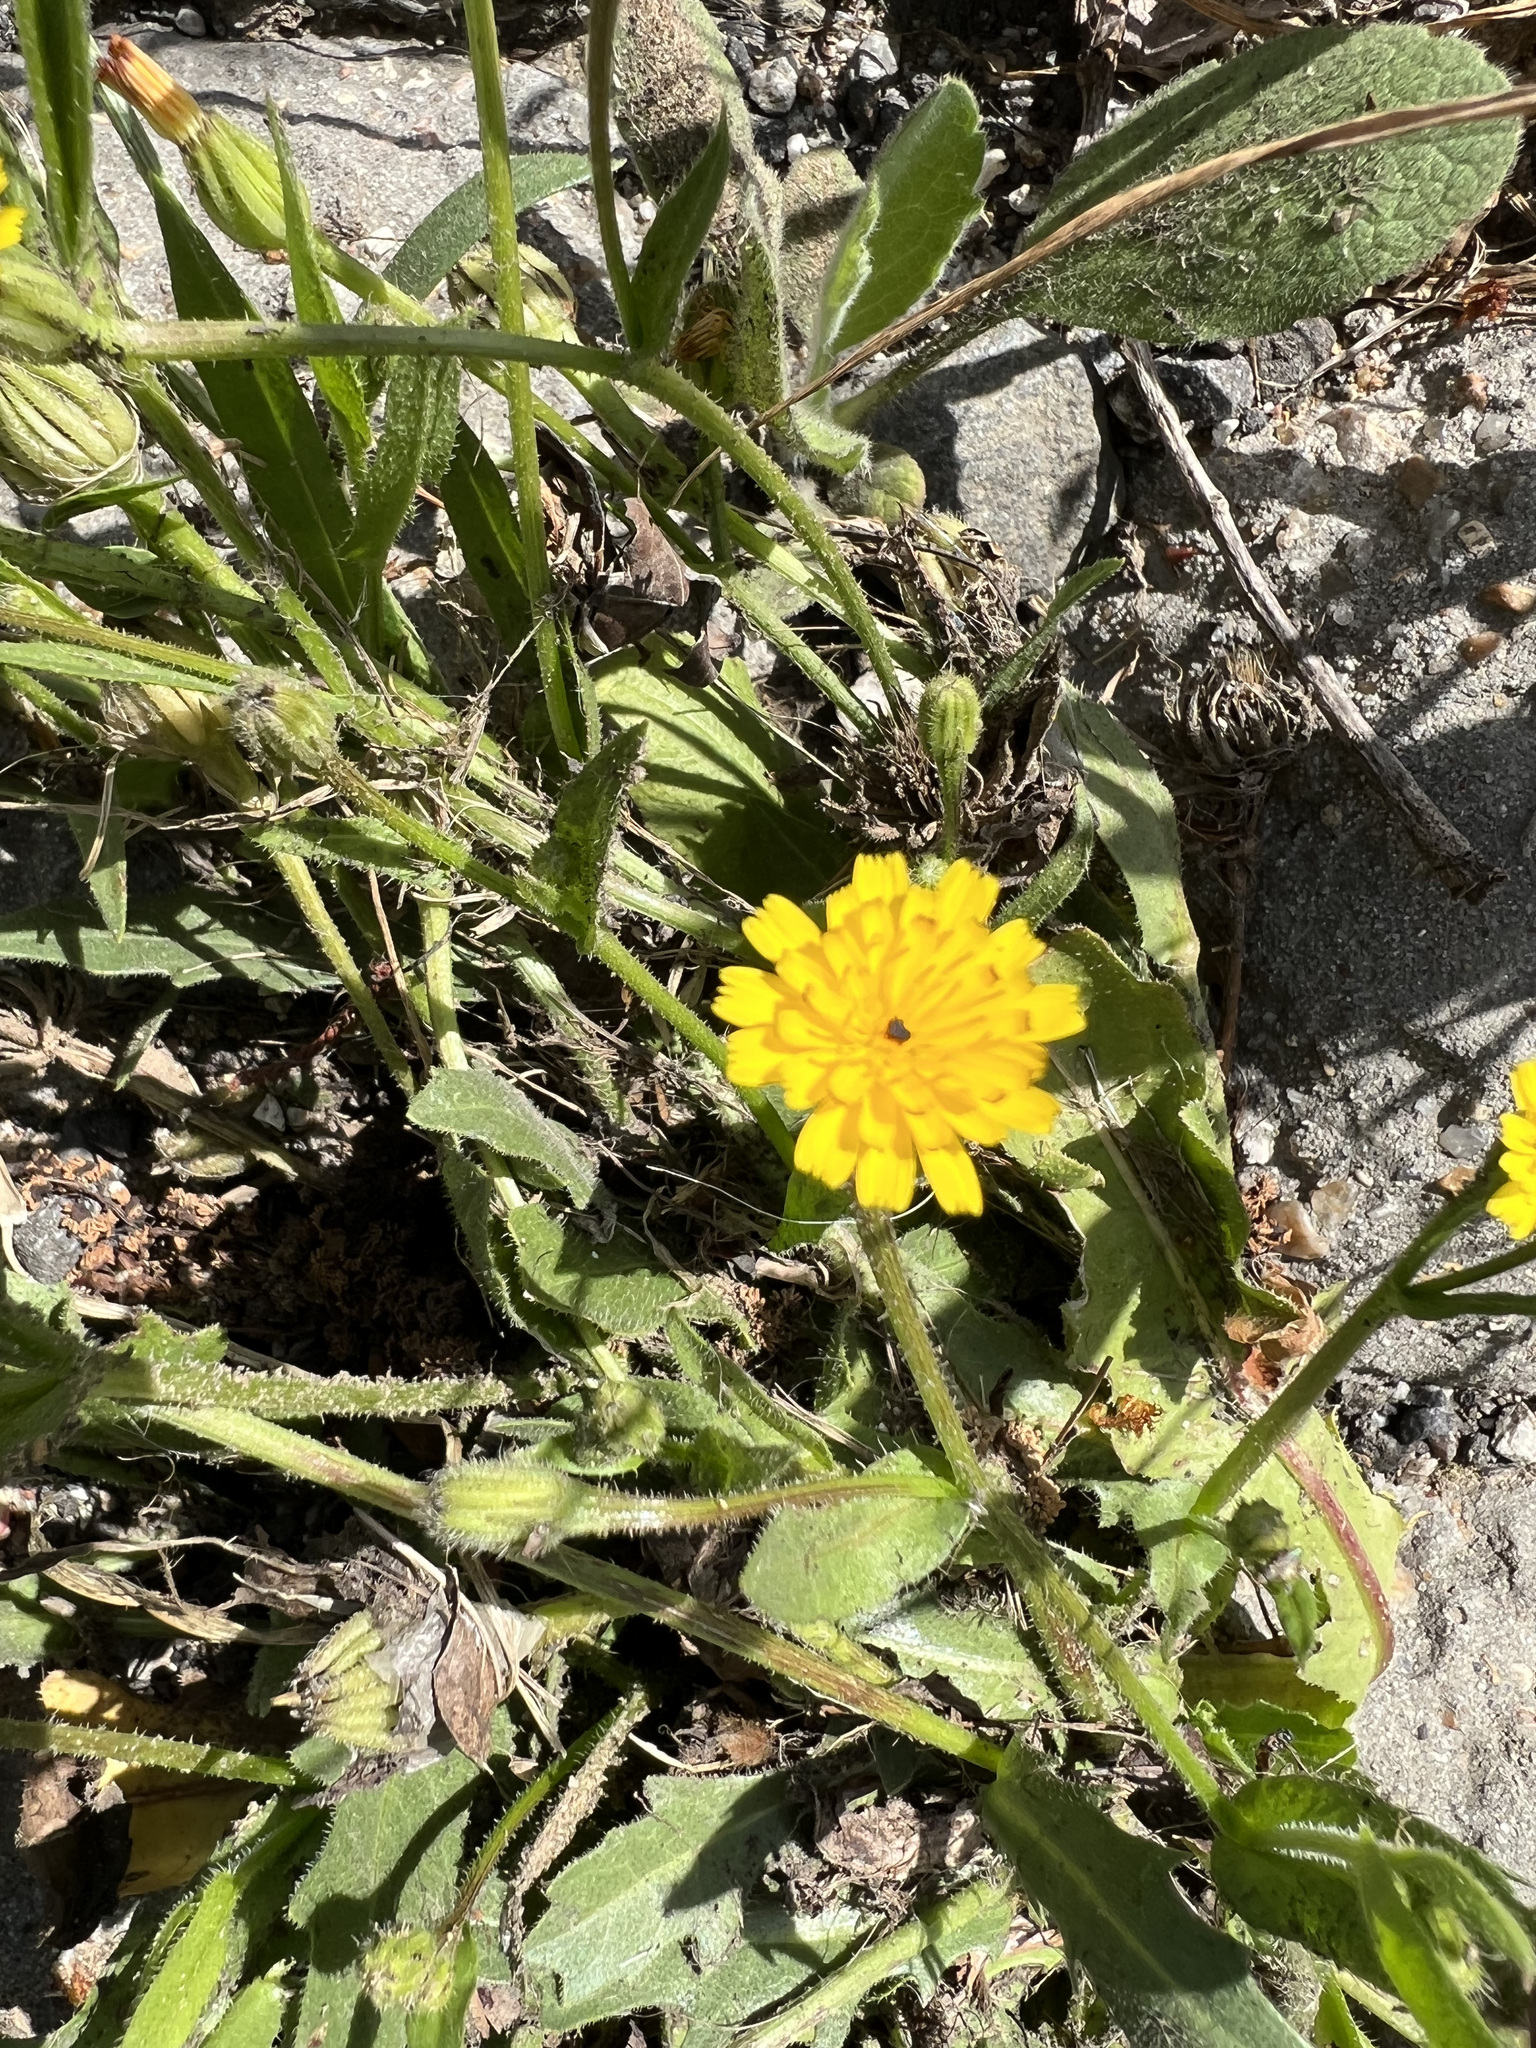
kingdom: Plantae
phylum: Tracheophyta
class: Magnoliopsida
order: Asterales
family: Asteraceae
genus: Hedypnois
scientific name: Hedypnois rhagadioloides
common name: Cretan weed
